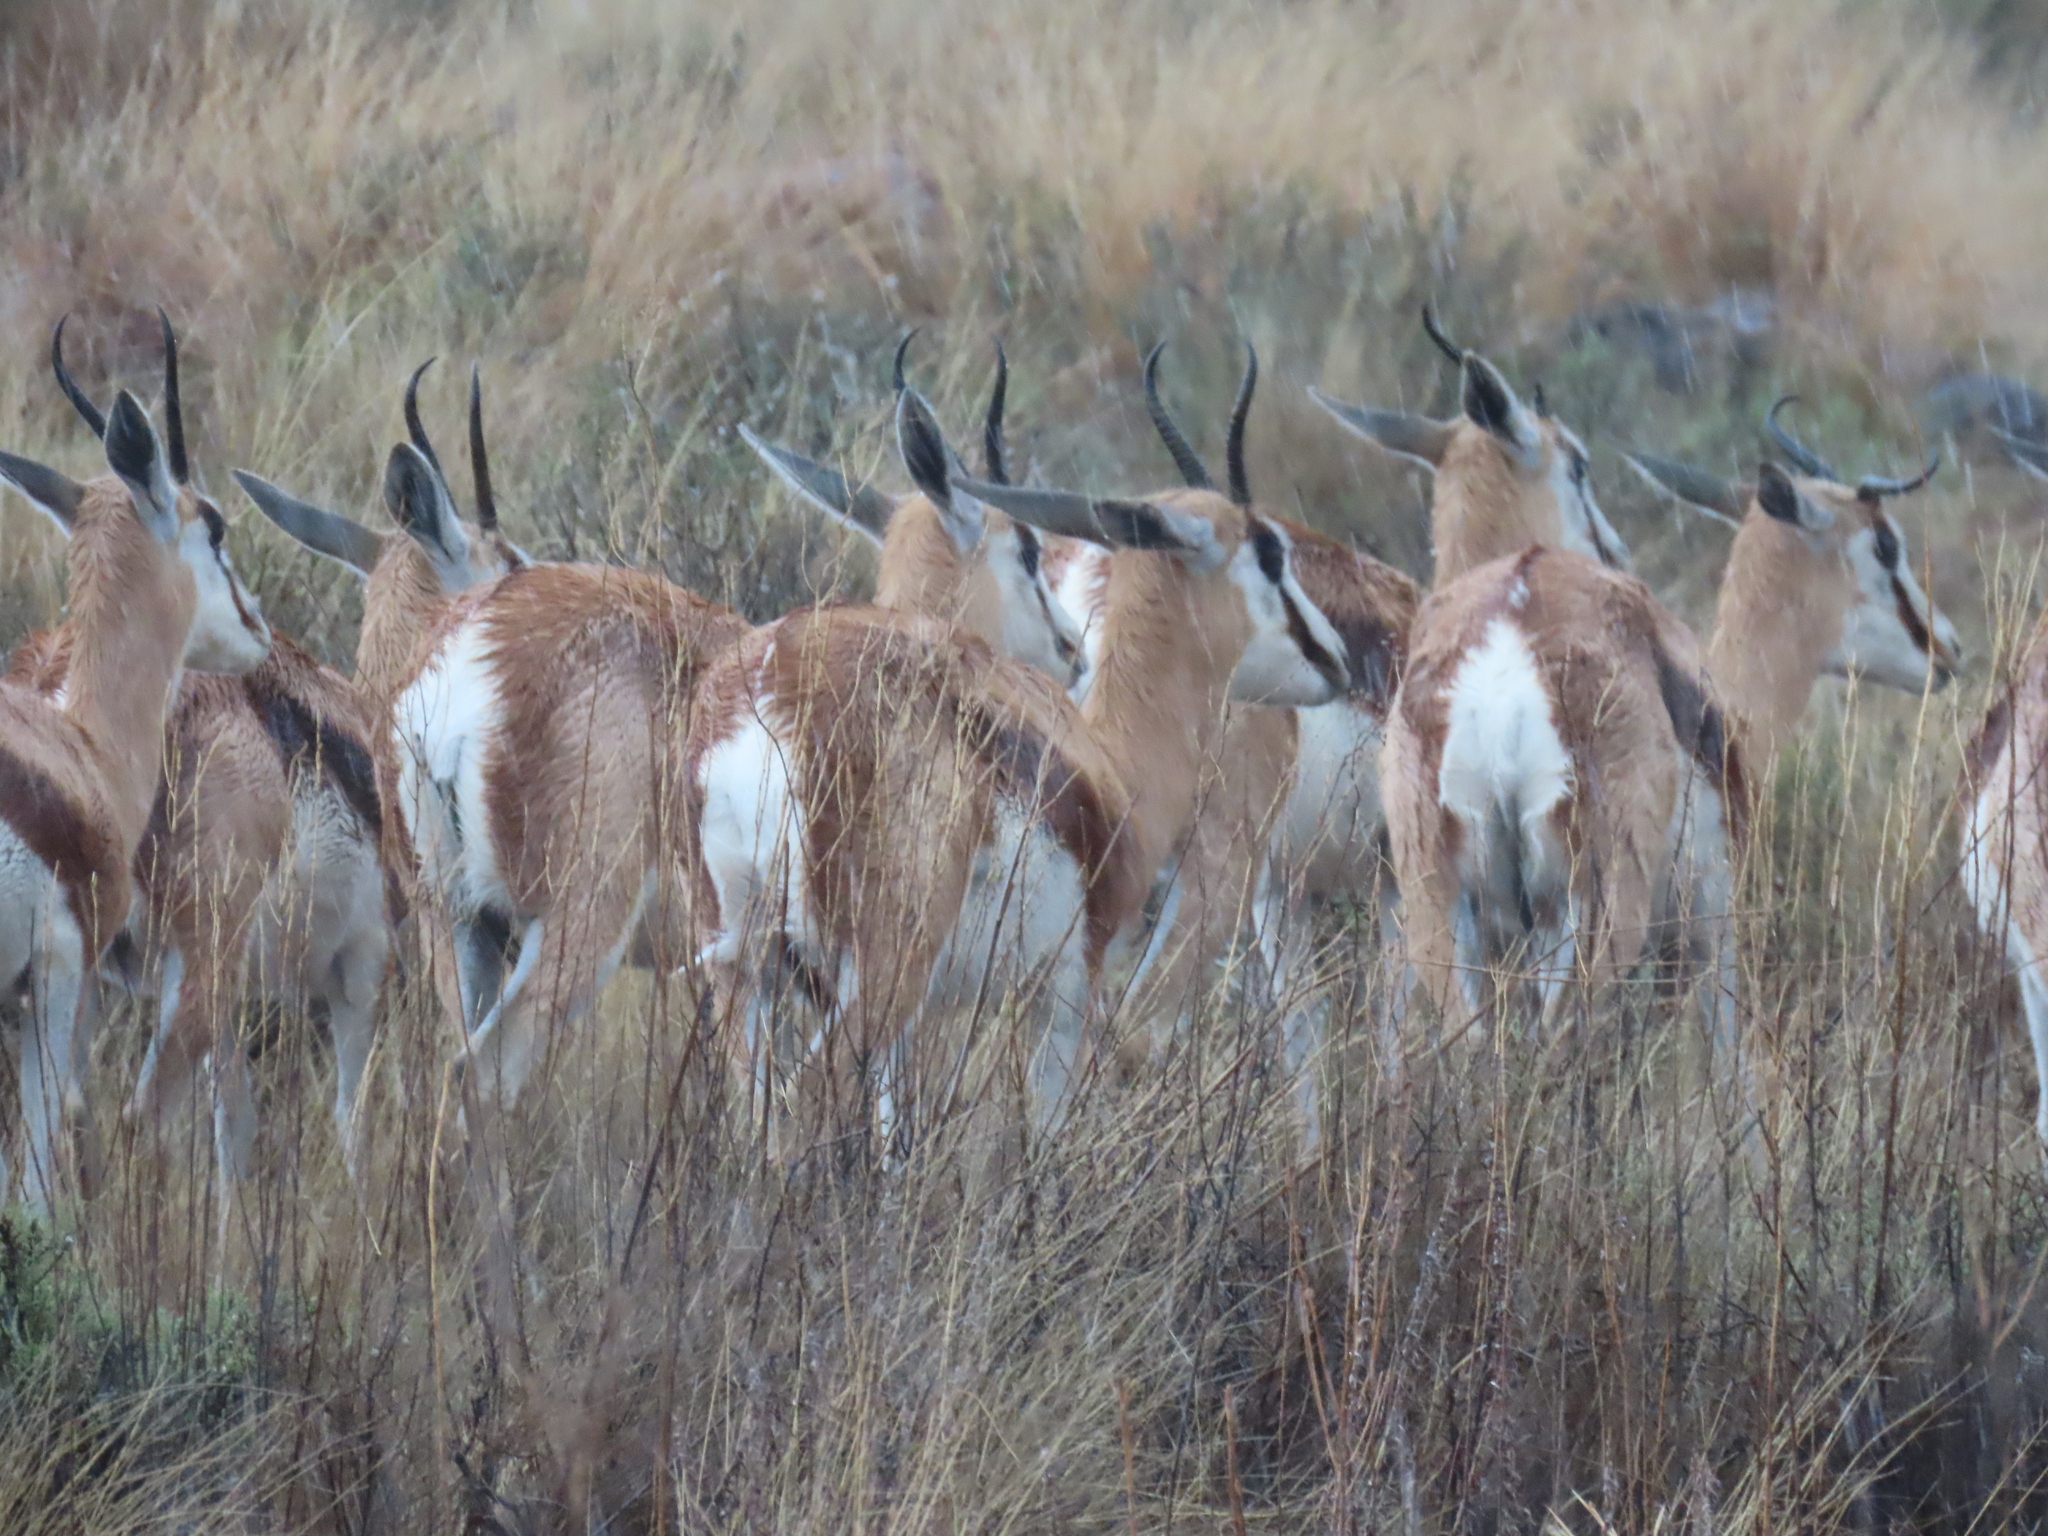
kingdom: Animalia
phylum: Chordata
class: Mammalia
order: Artiodactyla
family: Bovidae
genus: Antidorcas
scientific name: Antidorcas marsupialis
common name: Springbok
